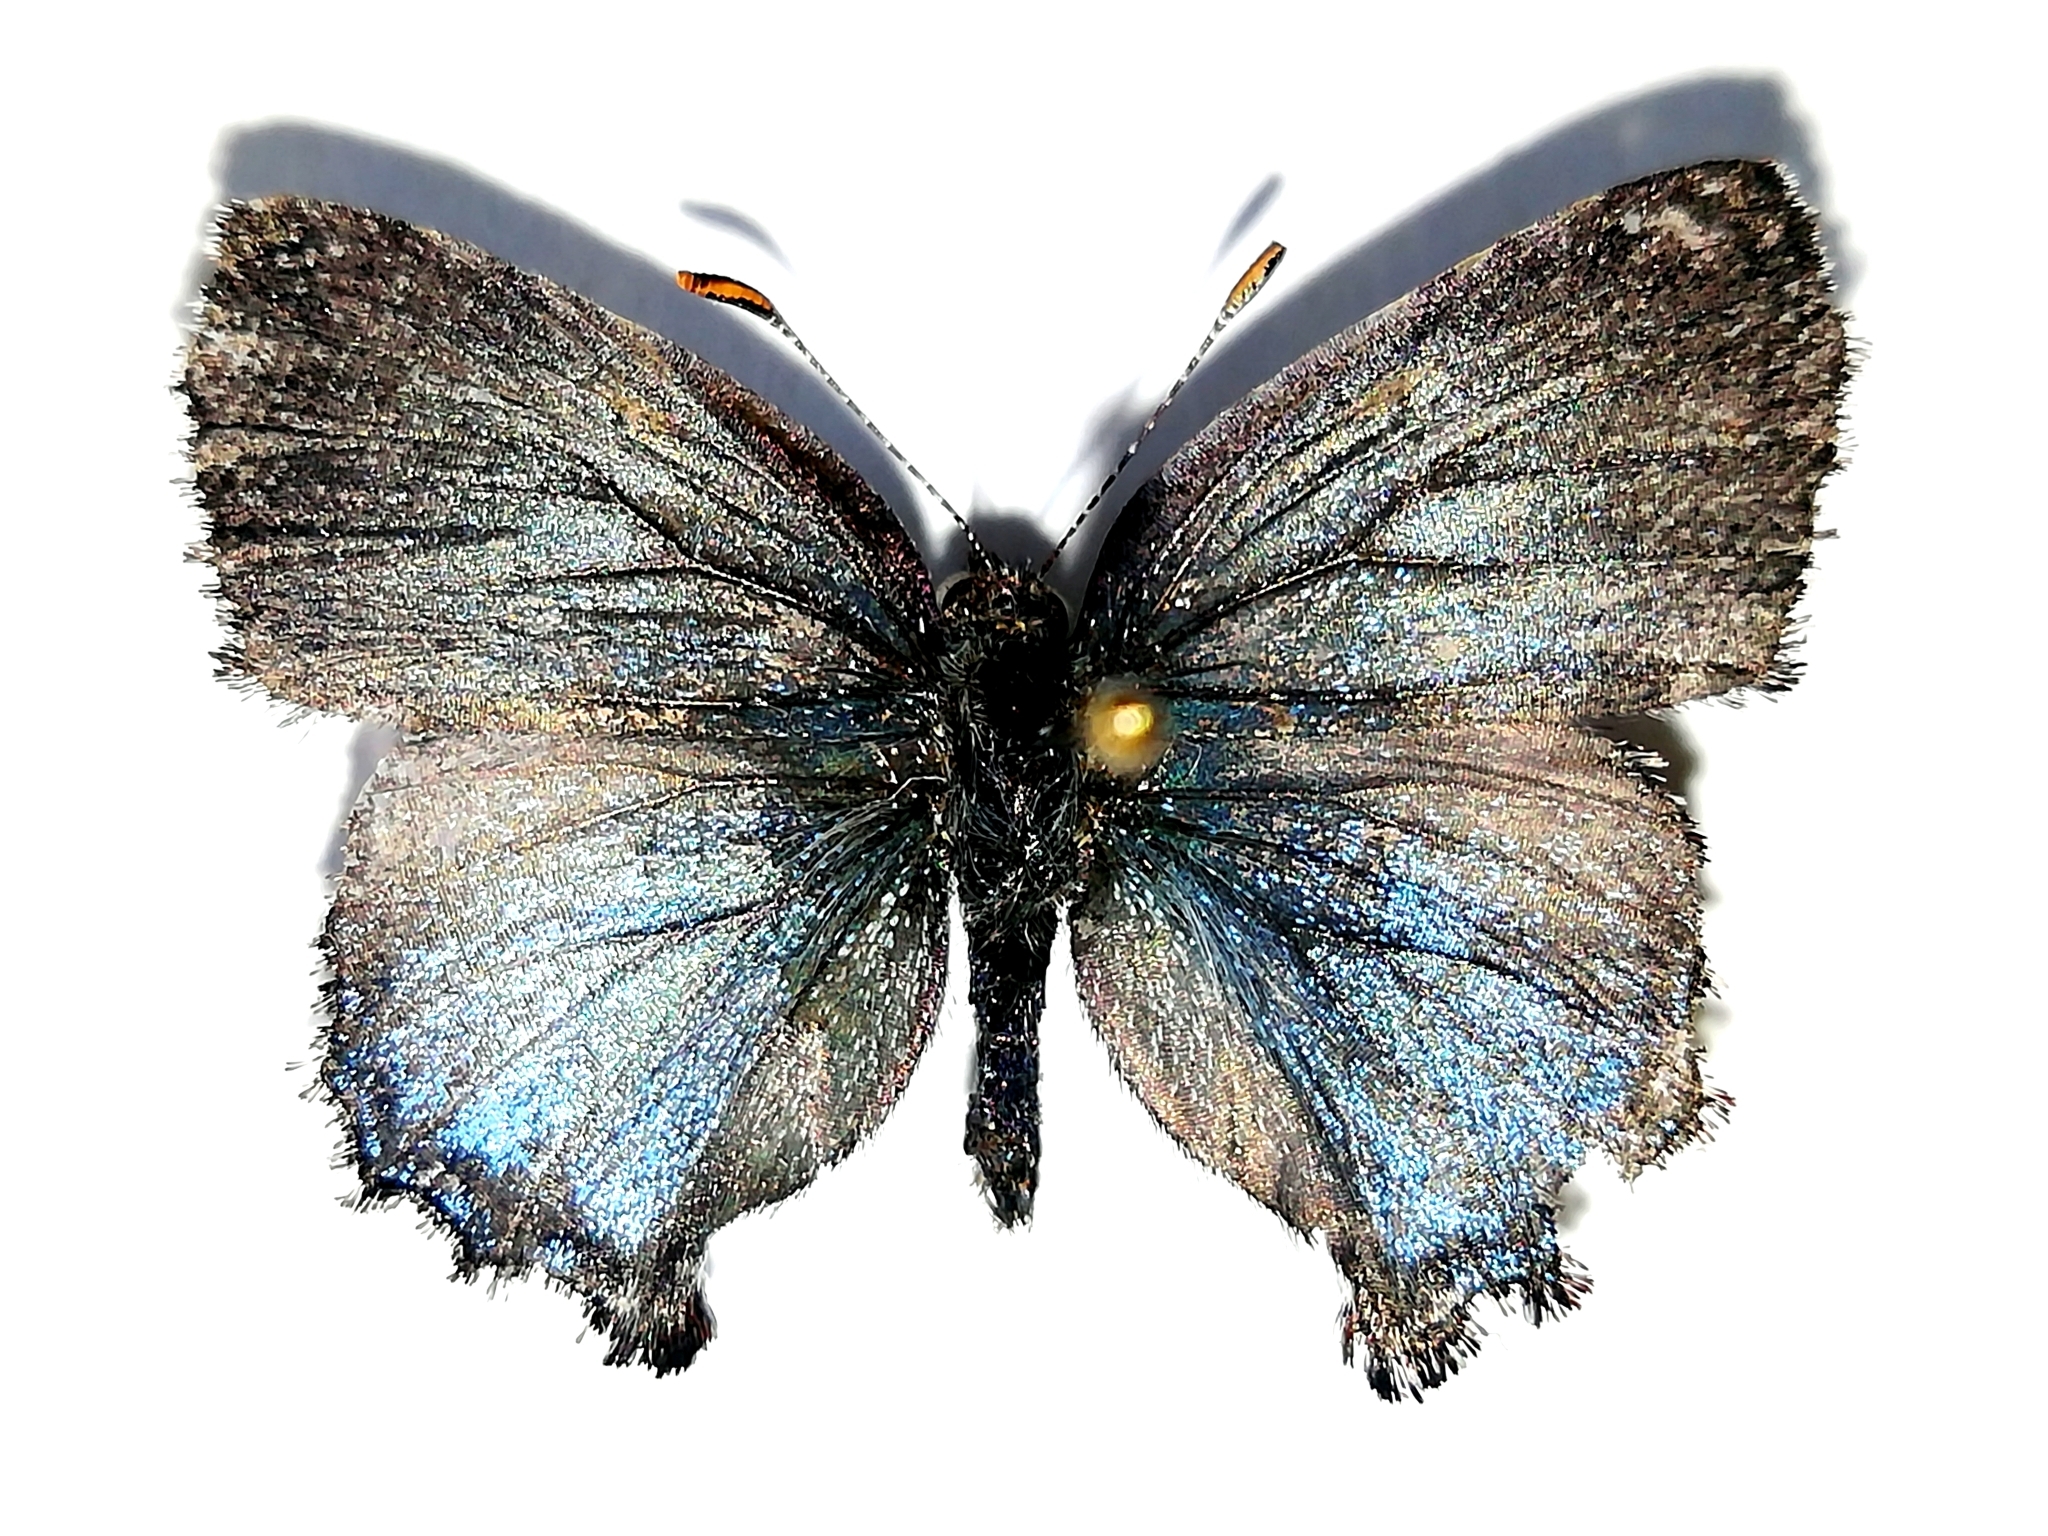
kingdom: Animalia
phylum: Arthropoda
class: Insecta
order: Lepidoptera
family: Lycaenidae
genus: Ginzia
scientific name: Ginzia Ahlbergia frivaldszkyi
